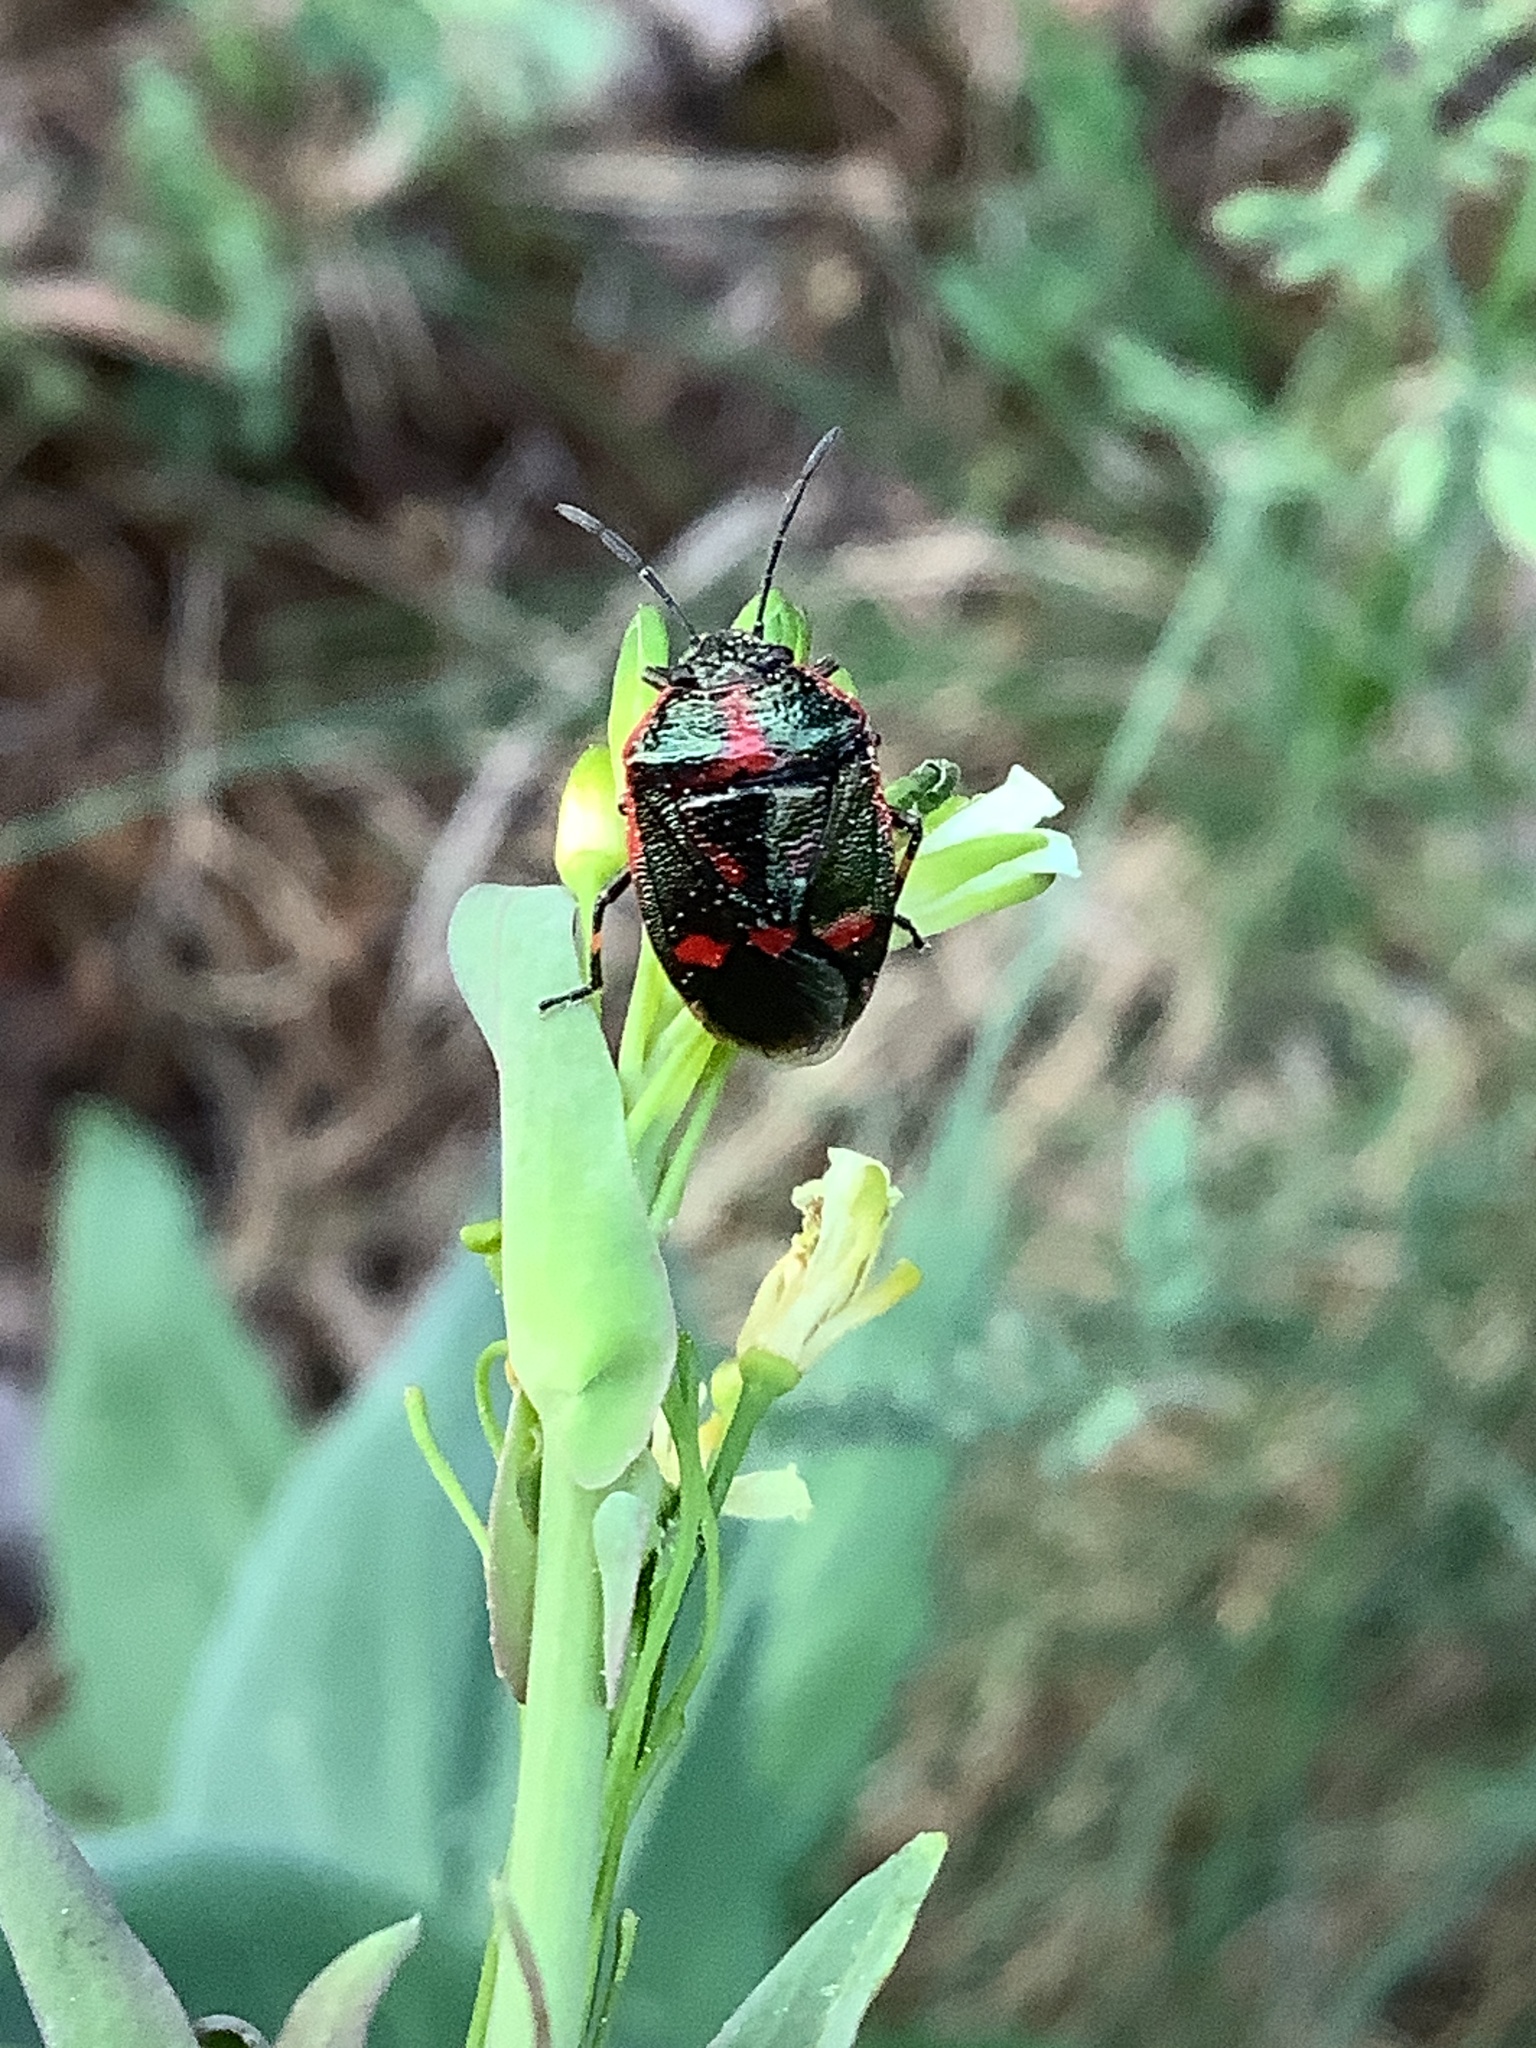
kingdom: Animalia
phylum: Arthropoda
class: Insecta
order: Hemiptera
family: Pentatomidae
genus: Eurydema
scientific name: Eurydema oleracea
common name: Cabbage bug
